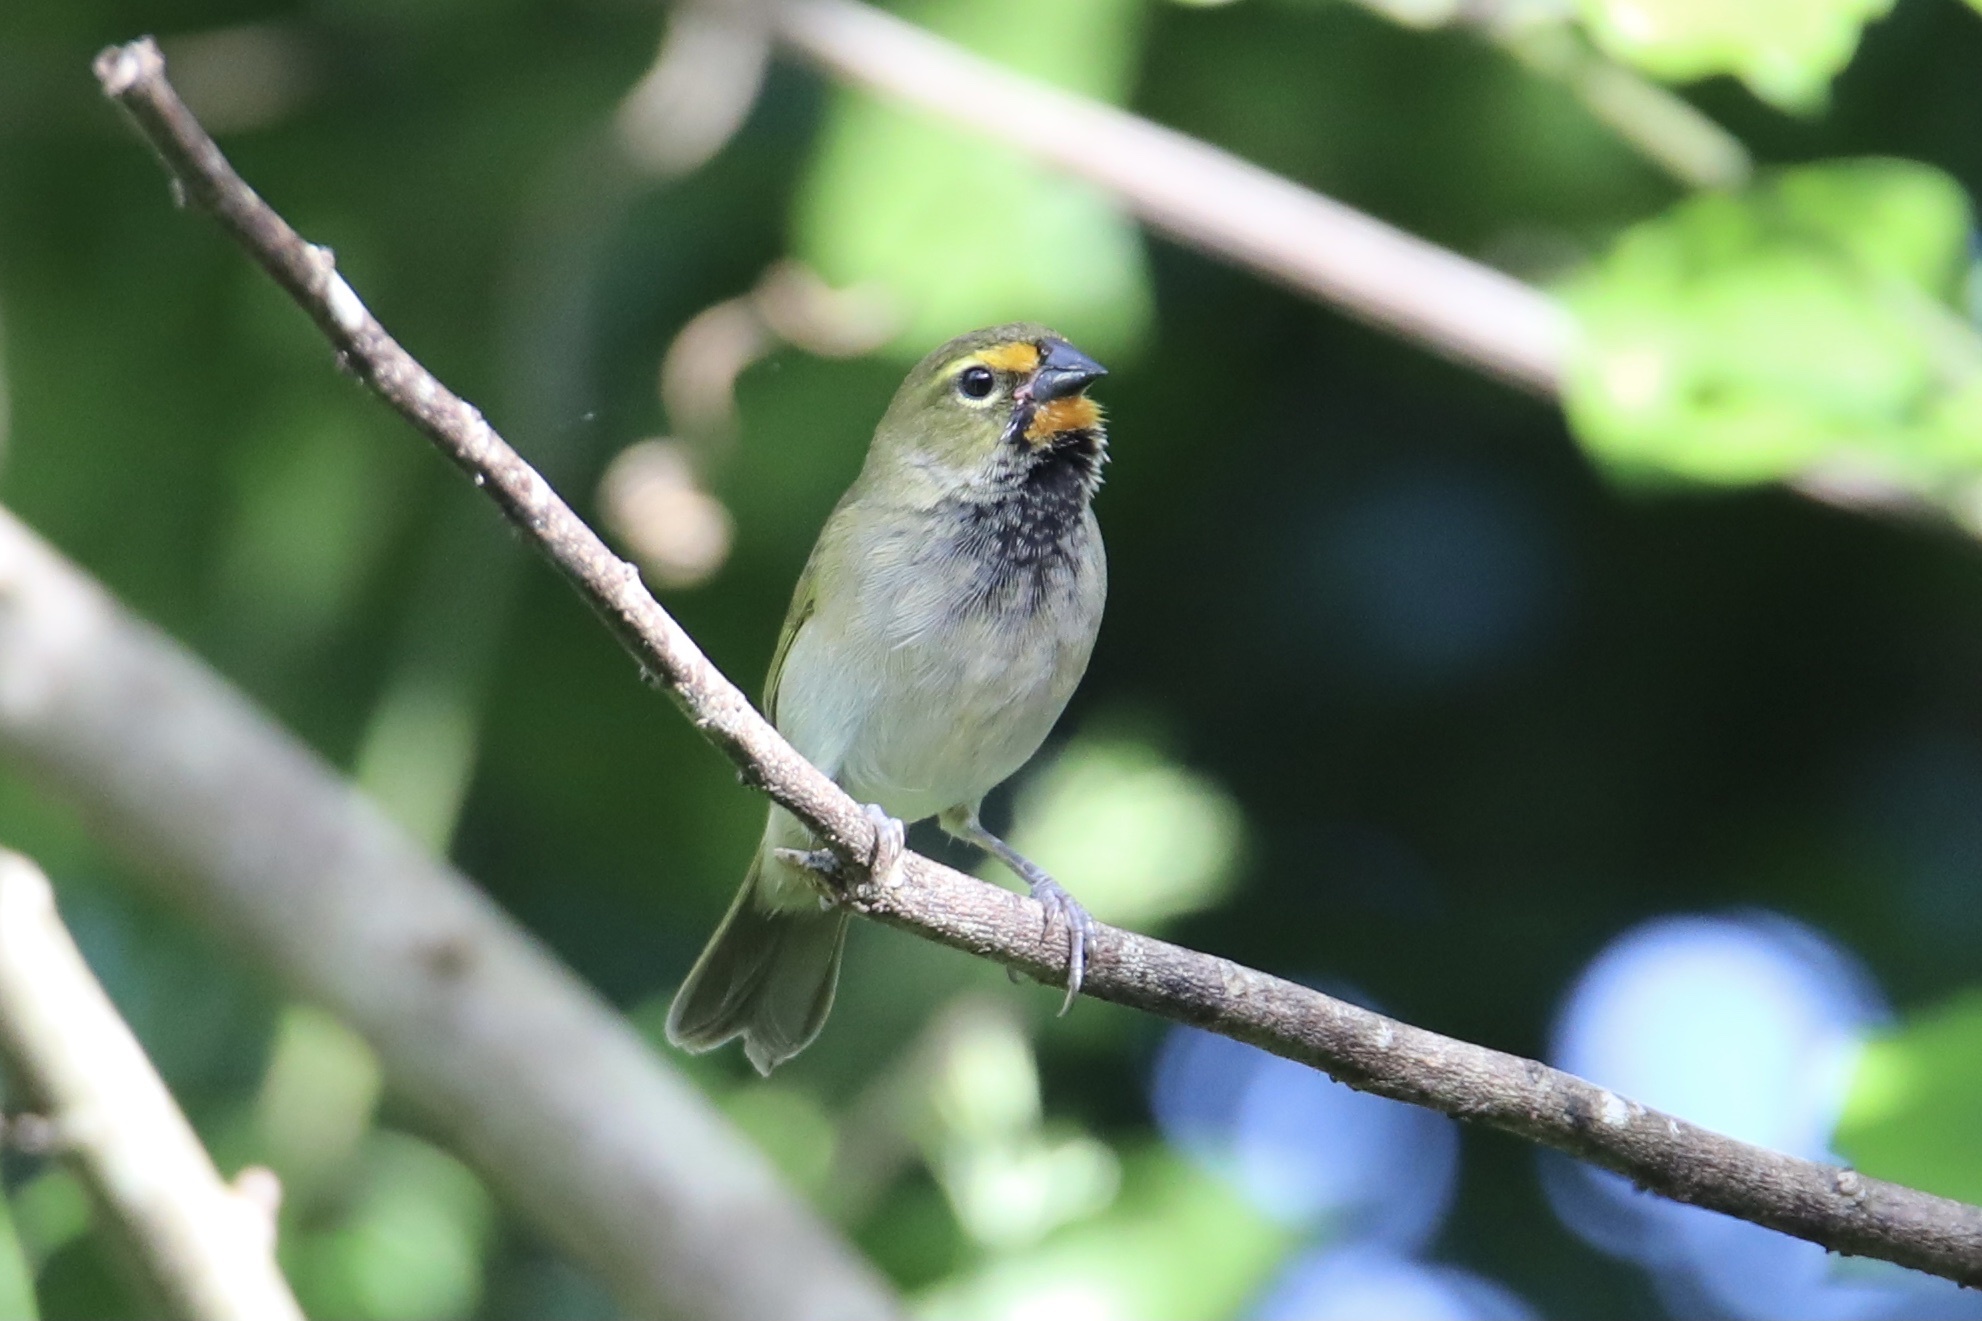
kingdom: Animalia
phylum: Chordata
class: Aves
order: Passeriformes
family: Thraupidae
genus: Tiaris
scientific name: Tiaris olivaceus
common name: Yellow-faced grassquit
